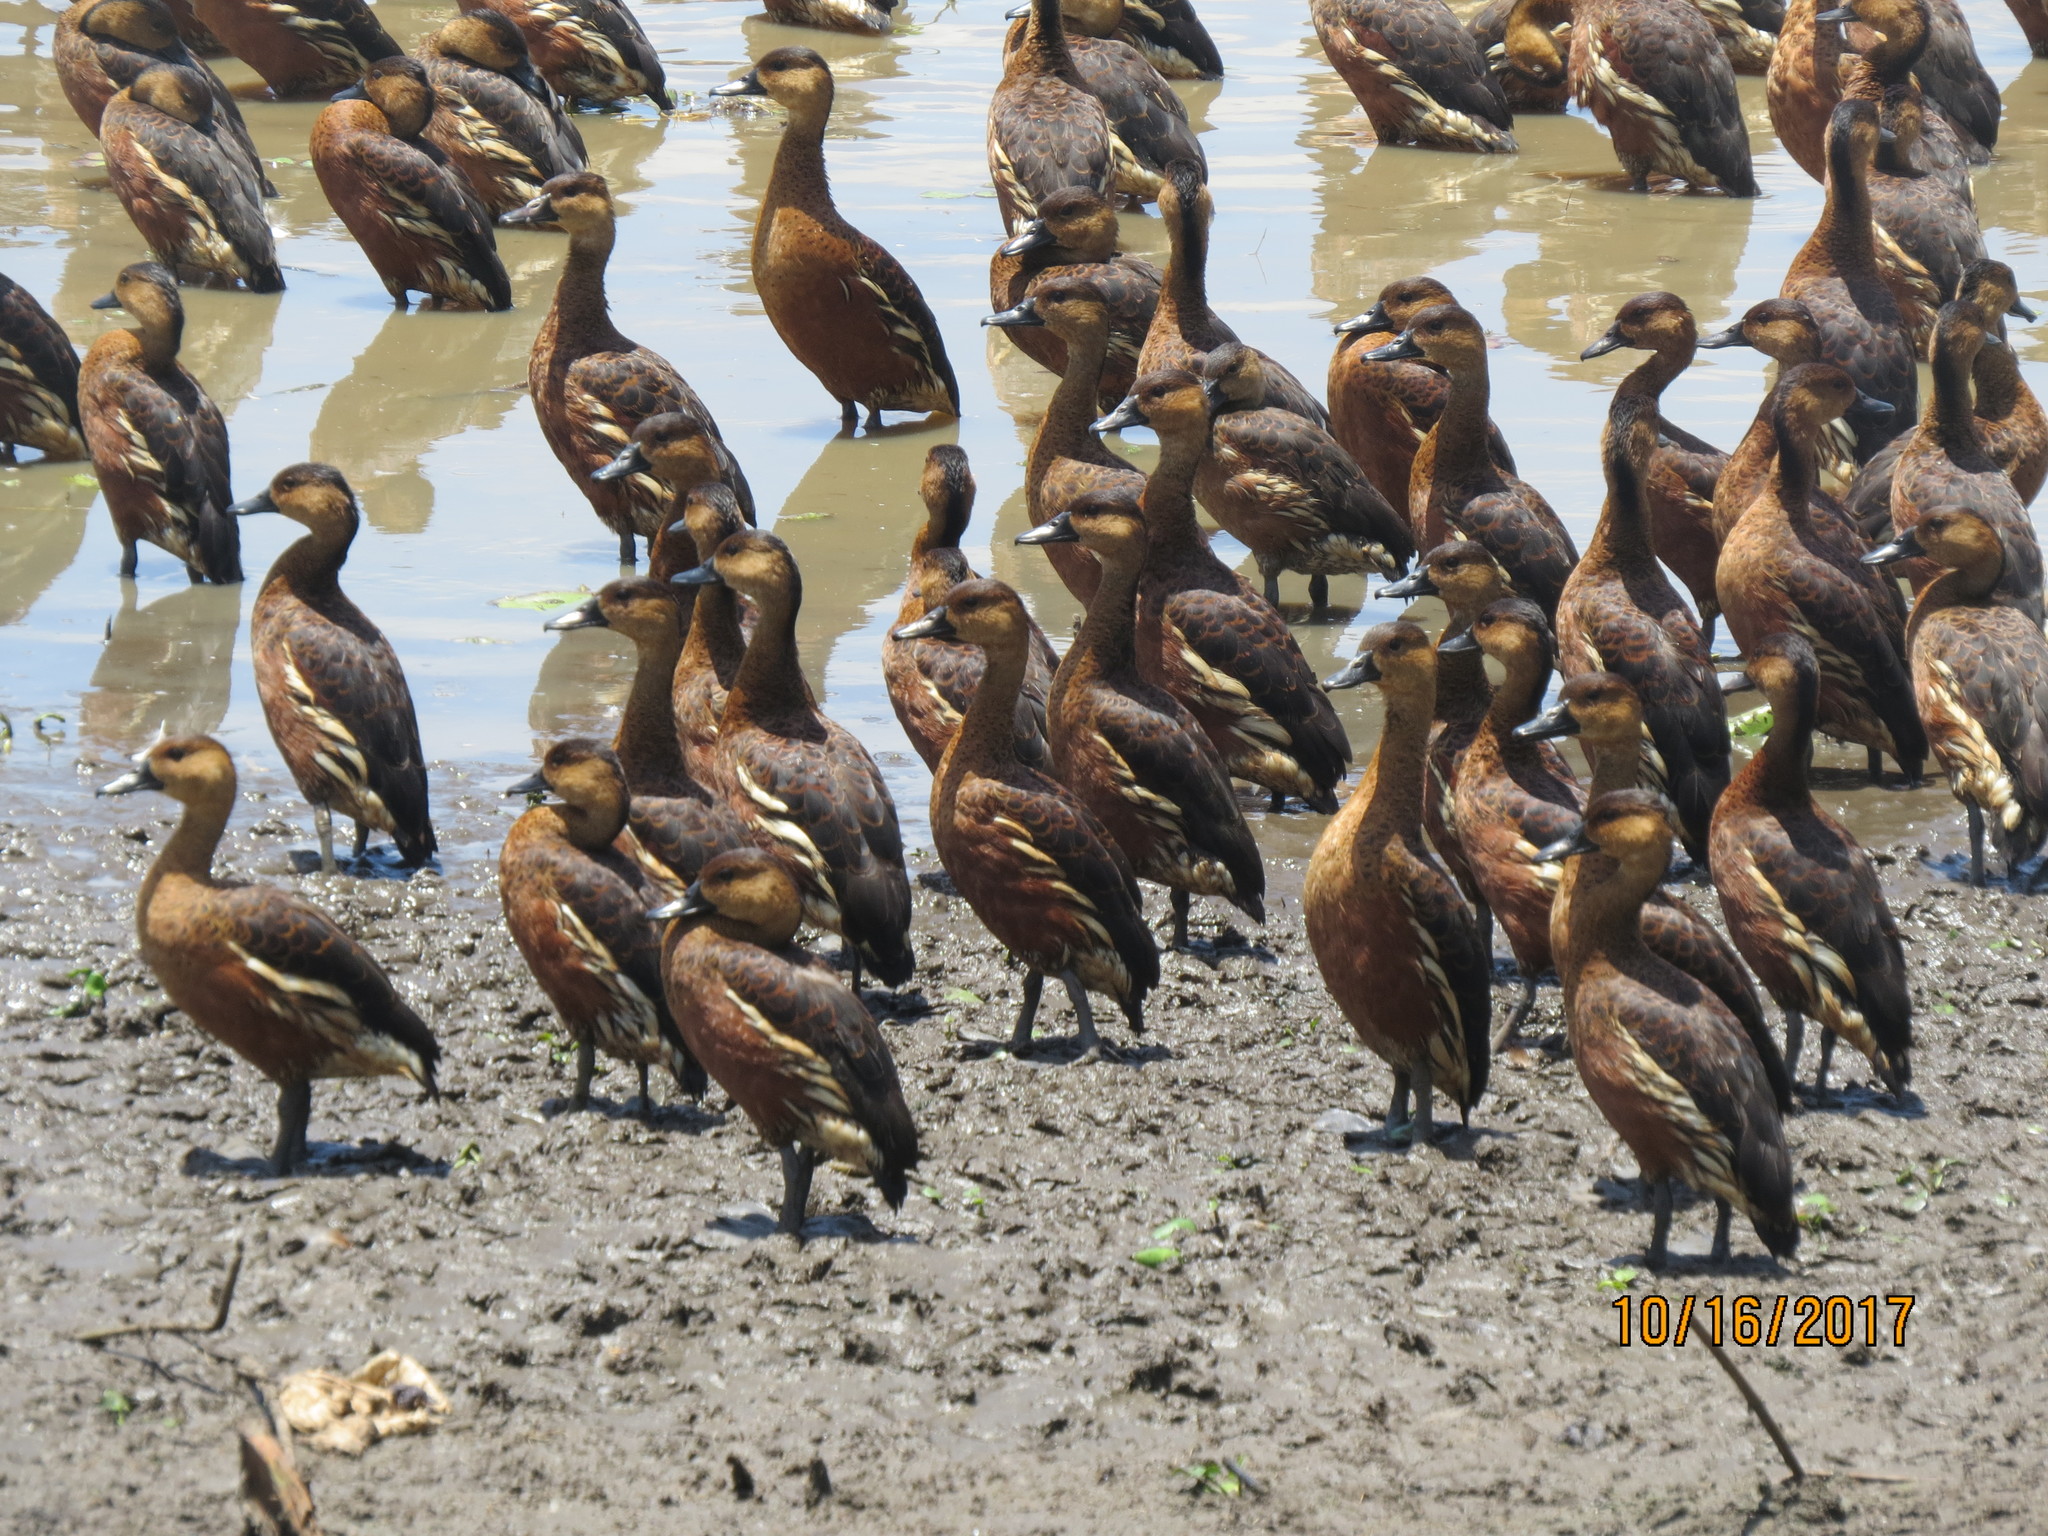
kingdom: Animalia
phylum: Chordata
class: Aves
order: Anseriformes
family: Anatidae
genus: Dendrocygna
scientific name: Dendrocygna arcuata
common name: Wandering whistling-duck
